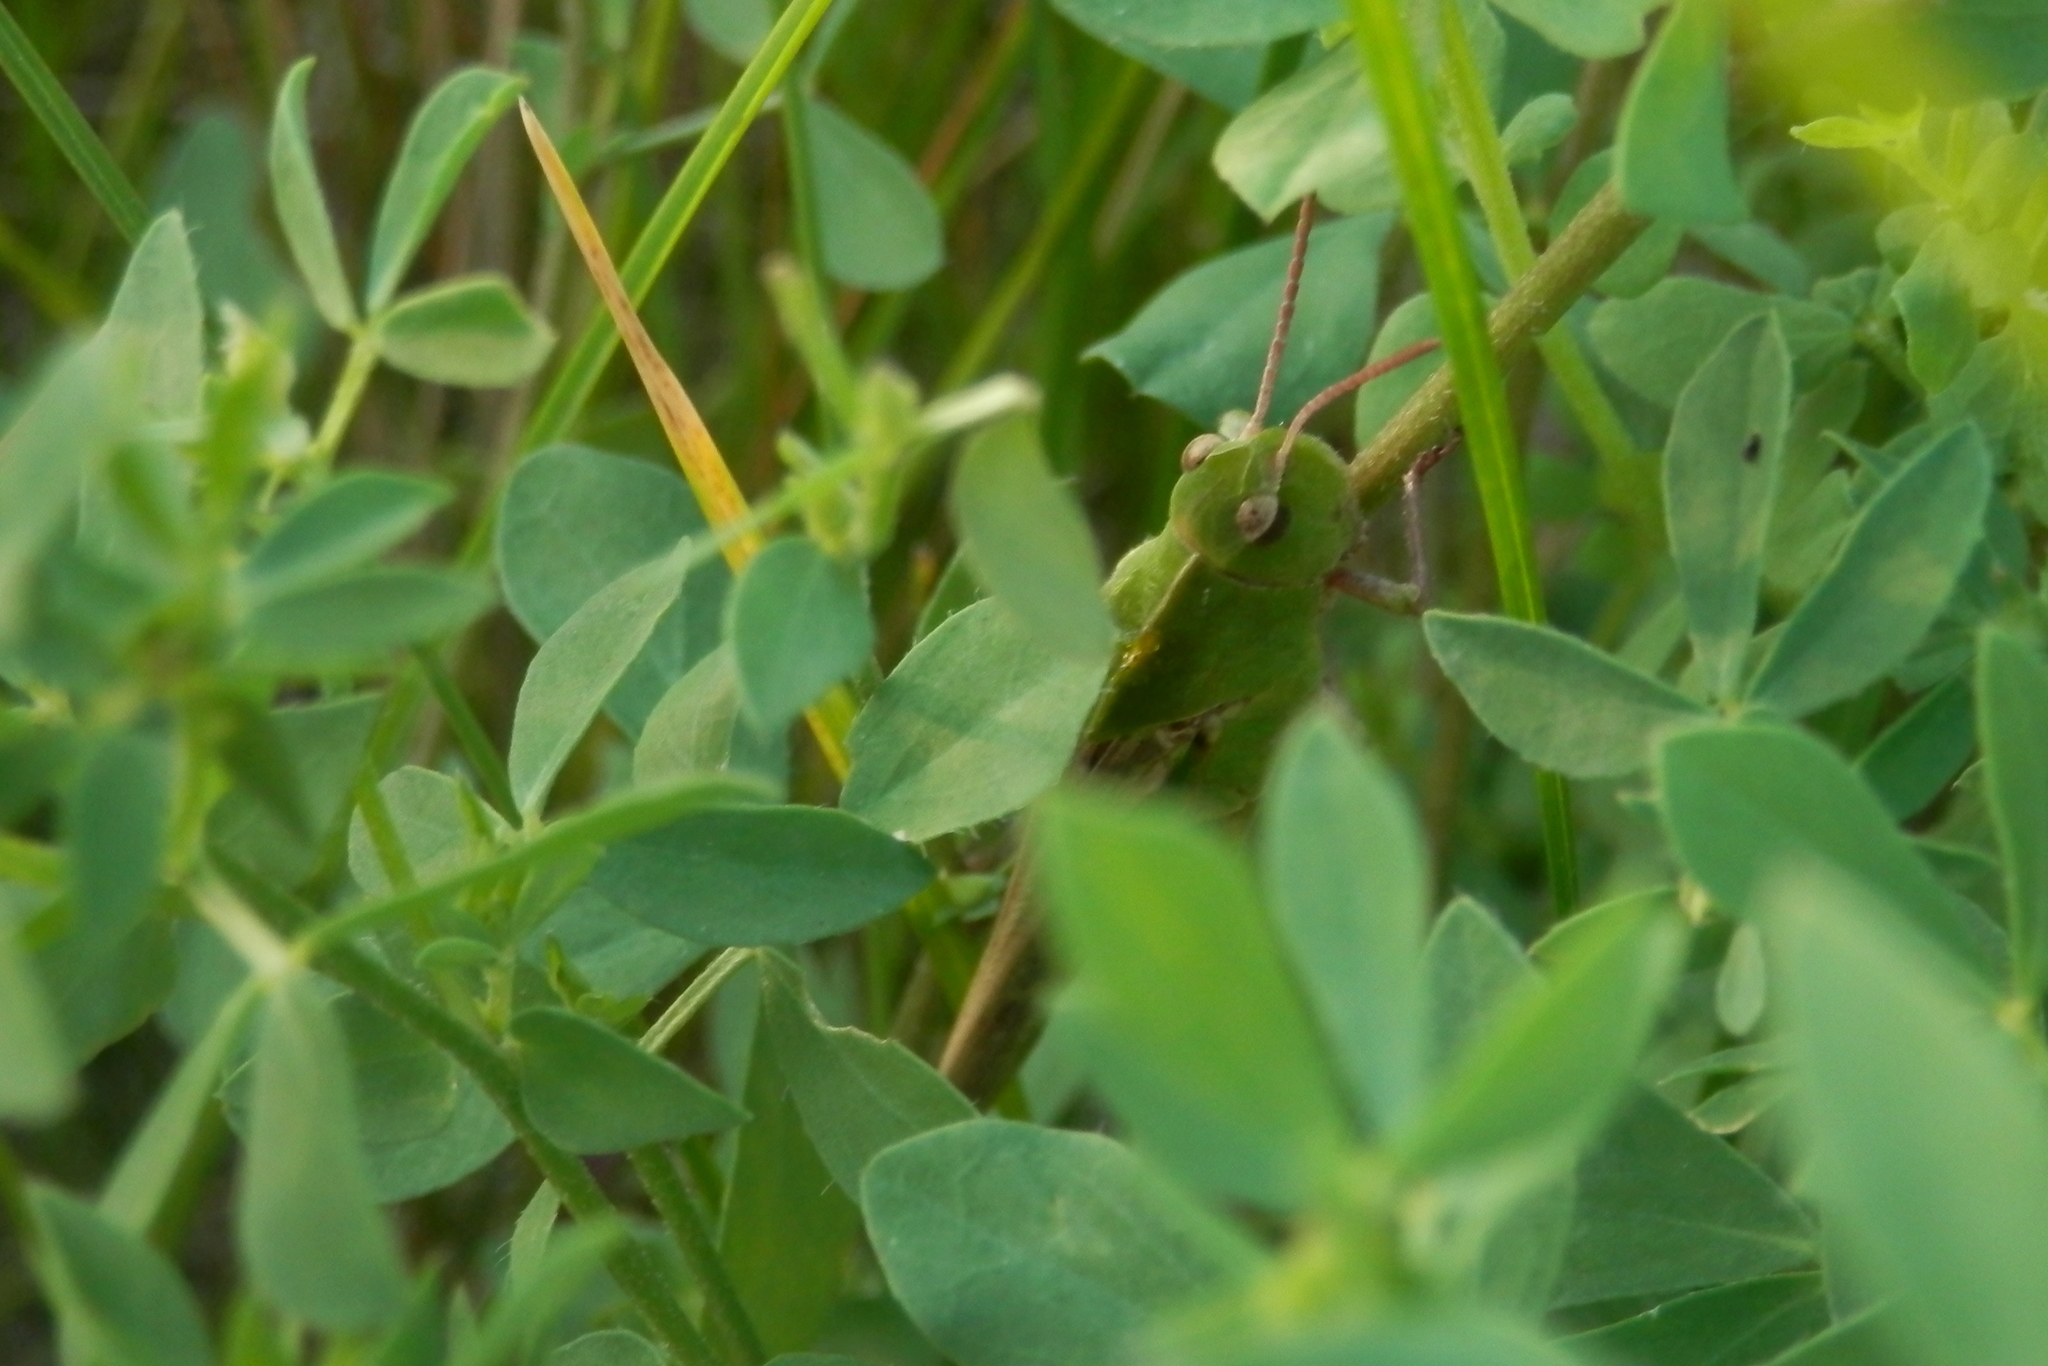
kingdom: Animalia
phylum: Arthropoda
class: Insecta
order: Orthoptera
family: Acrididae
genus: Chortophaga
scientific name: Chortophaga viridifasciata
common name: Green-striped grasshopper
